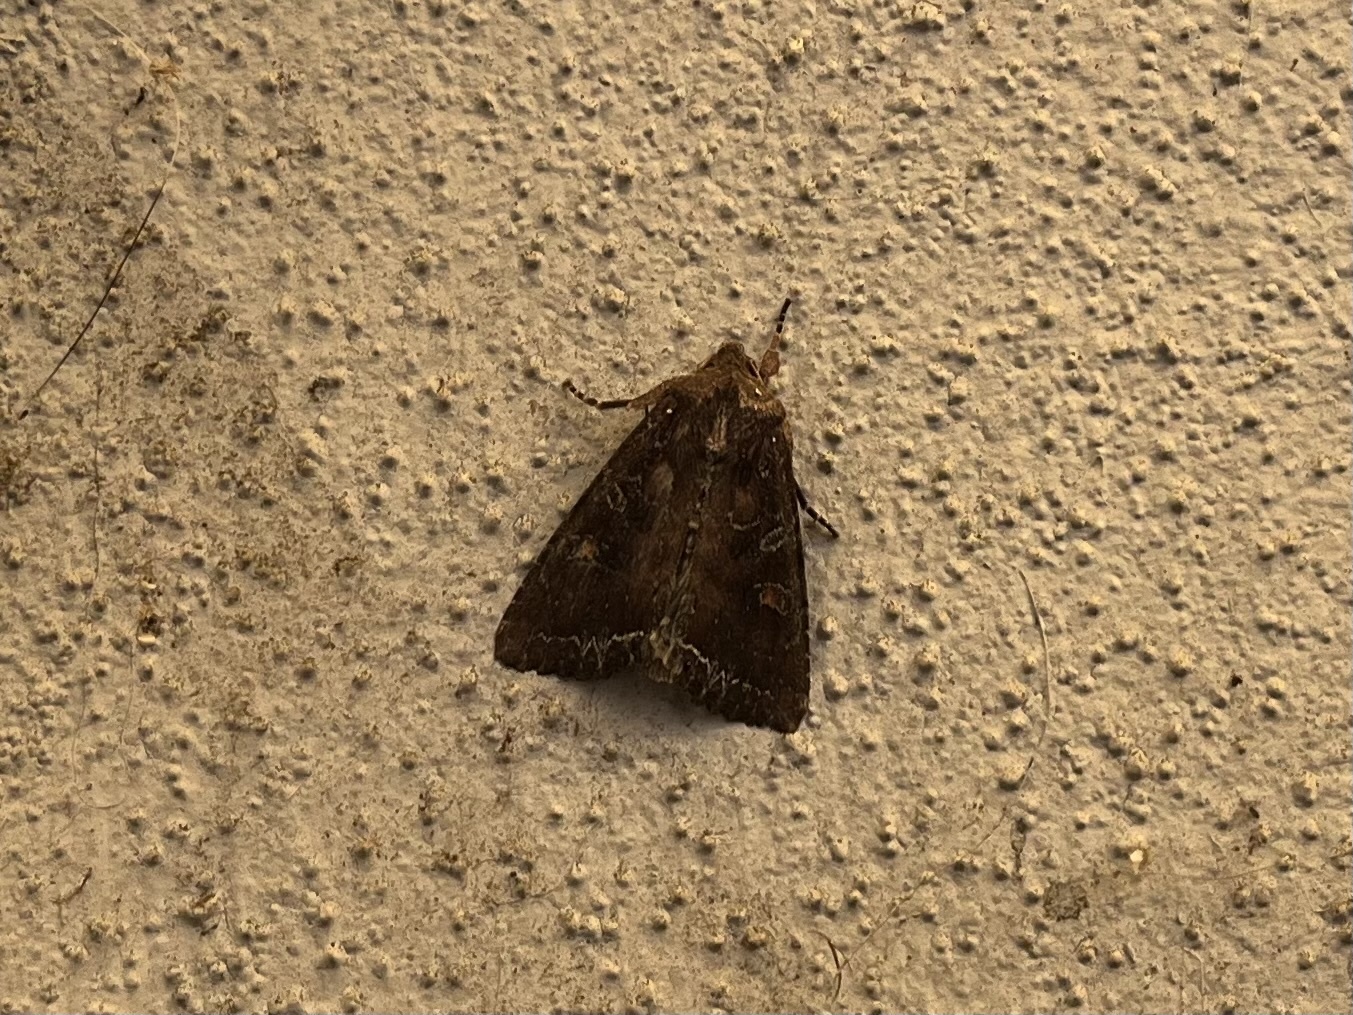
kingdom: Animalia
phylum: Arthropoda
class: Insecta
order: Lepidoptera
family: Noctuidae
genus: Lacanobia
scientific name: Lacanobia oleracea
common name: Bright-line brown-eye
